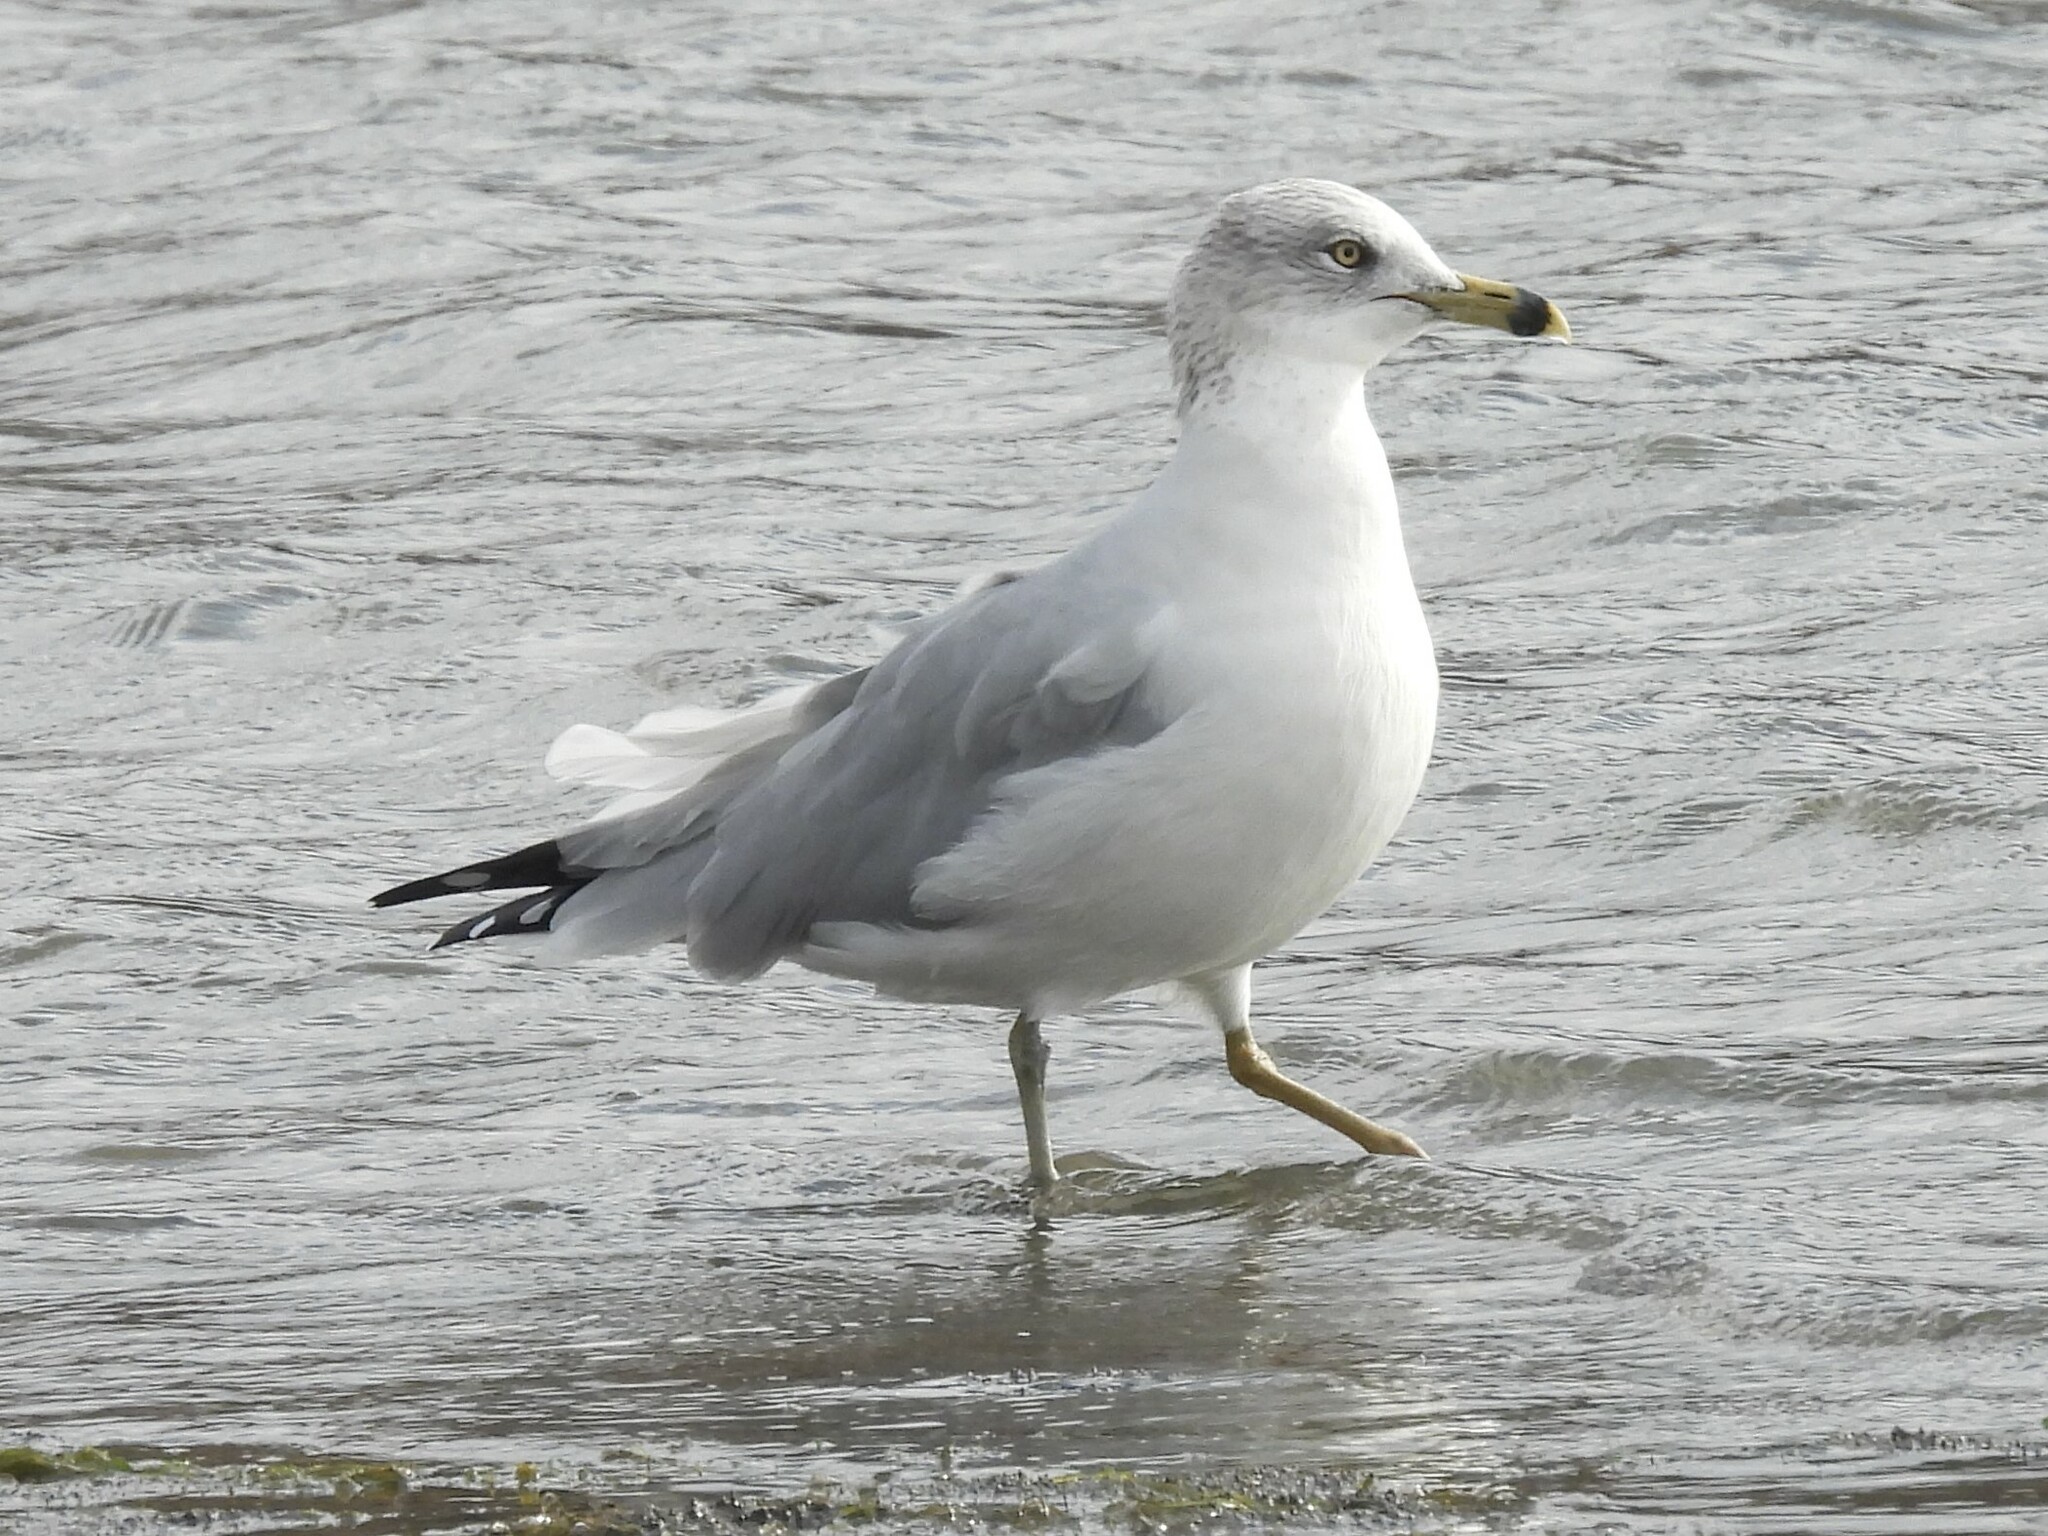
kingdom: Animalia
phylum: Chordata
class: Aves
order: Charadriiformes
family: Laridae
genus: Larus
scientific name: Larus delawarensis
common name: Ring-billed gull
